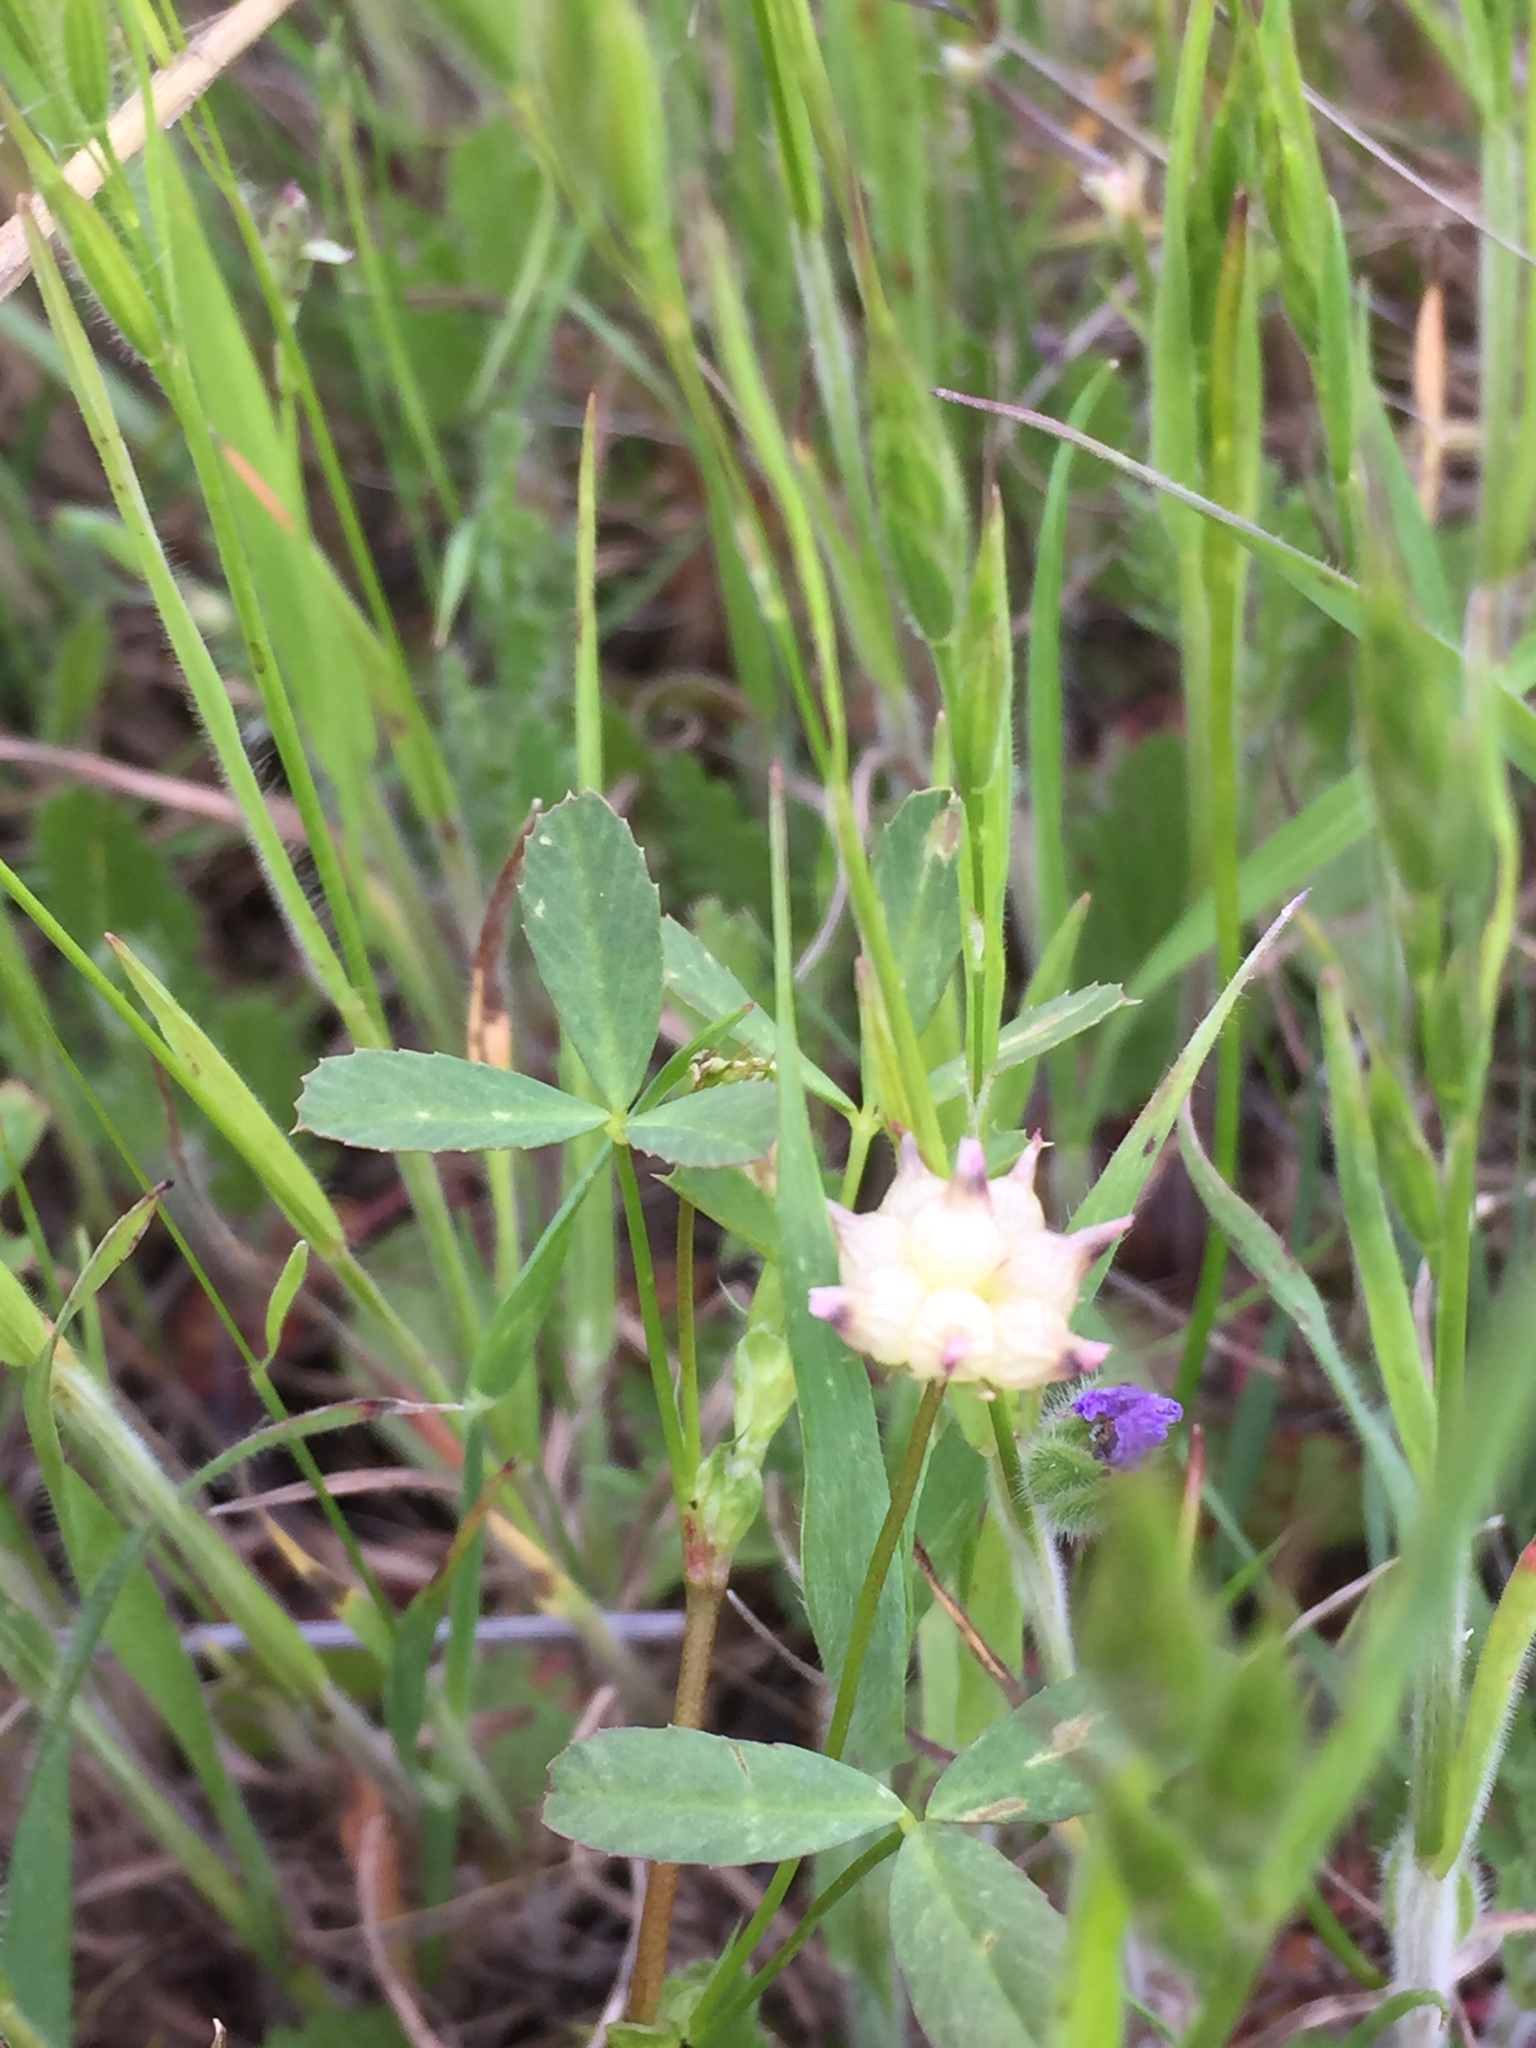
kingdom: Plantae
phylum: Tracheophyta
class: Magnoliopsida
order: Fabales
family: Fabaceae
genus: Trifolium
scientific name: Trifolium depauperatum
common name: Poverty clover
